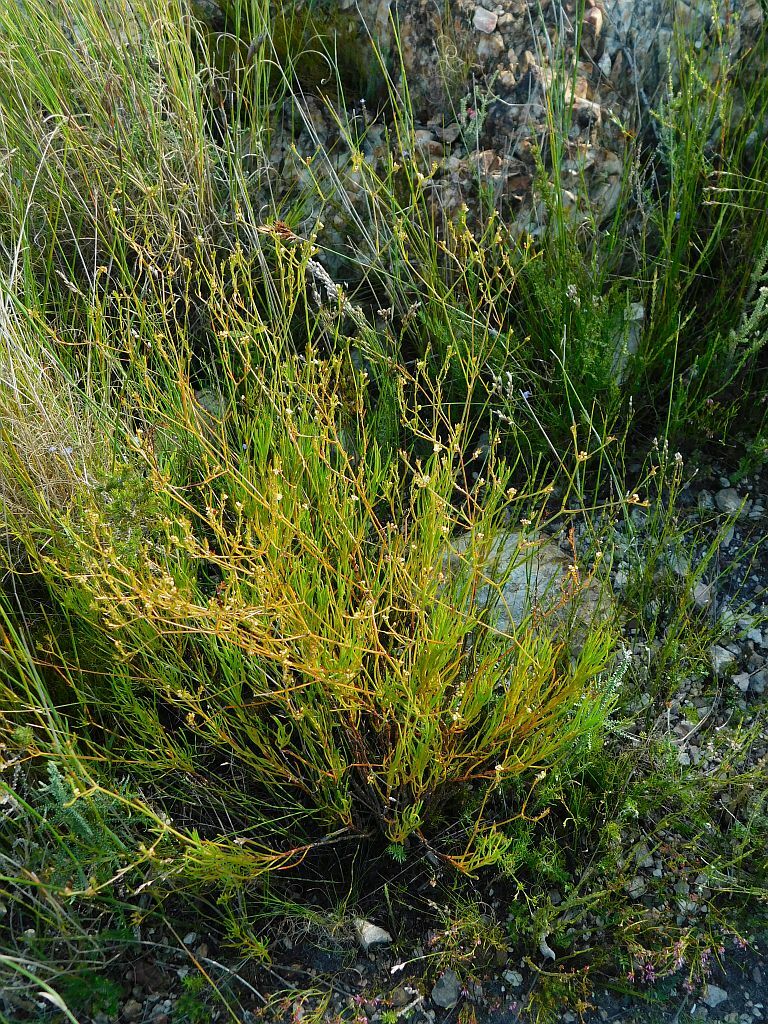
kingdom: Plantae
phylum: Tracheophyta
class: Magnoliopsida
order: Apiales
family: Apiaceae
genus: Centella
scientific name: Centella thesioides
